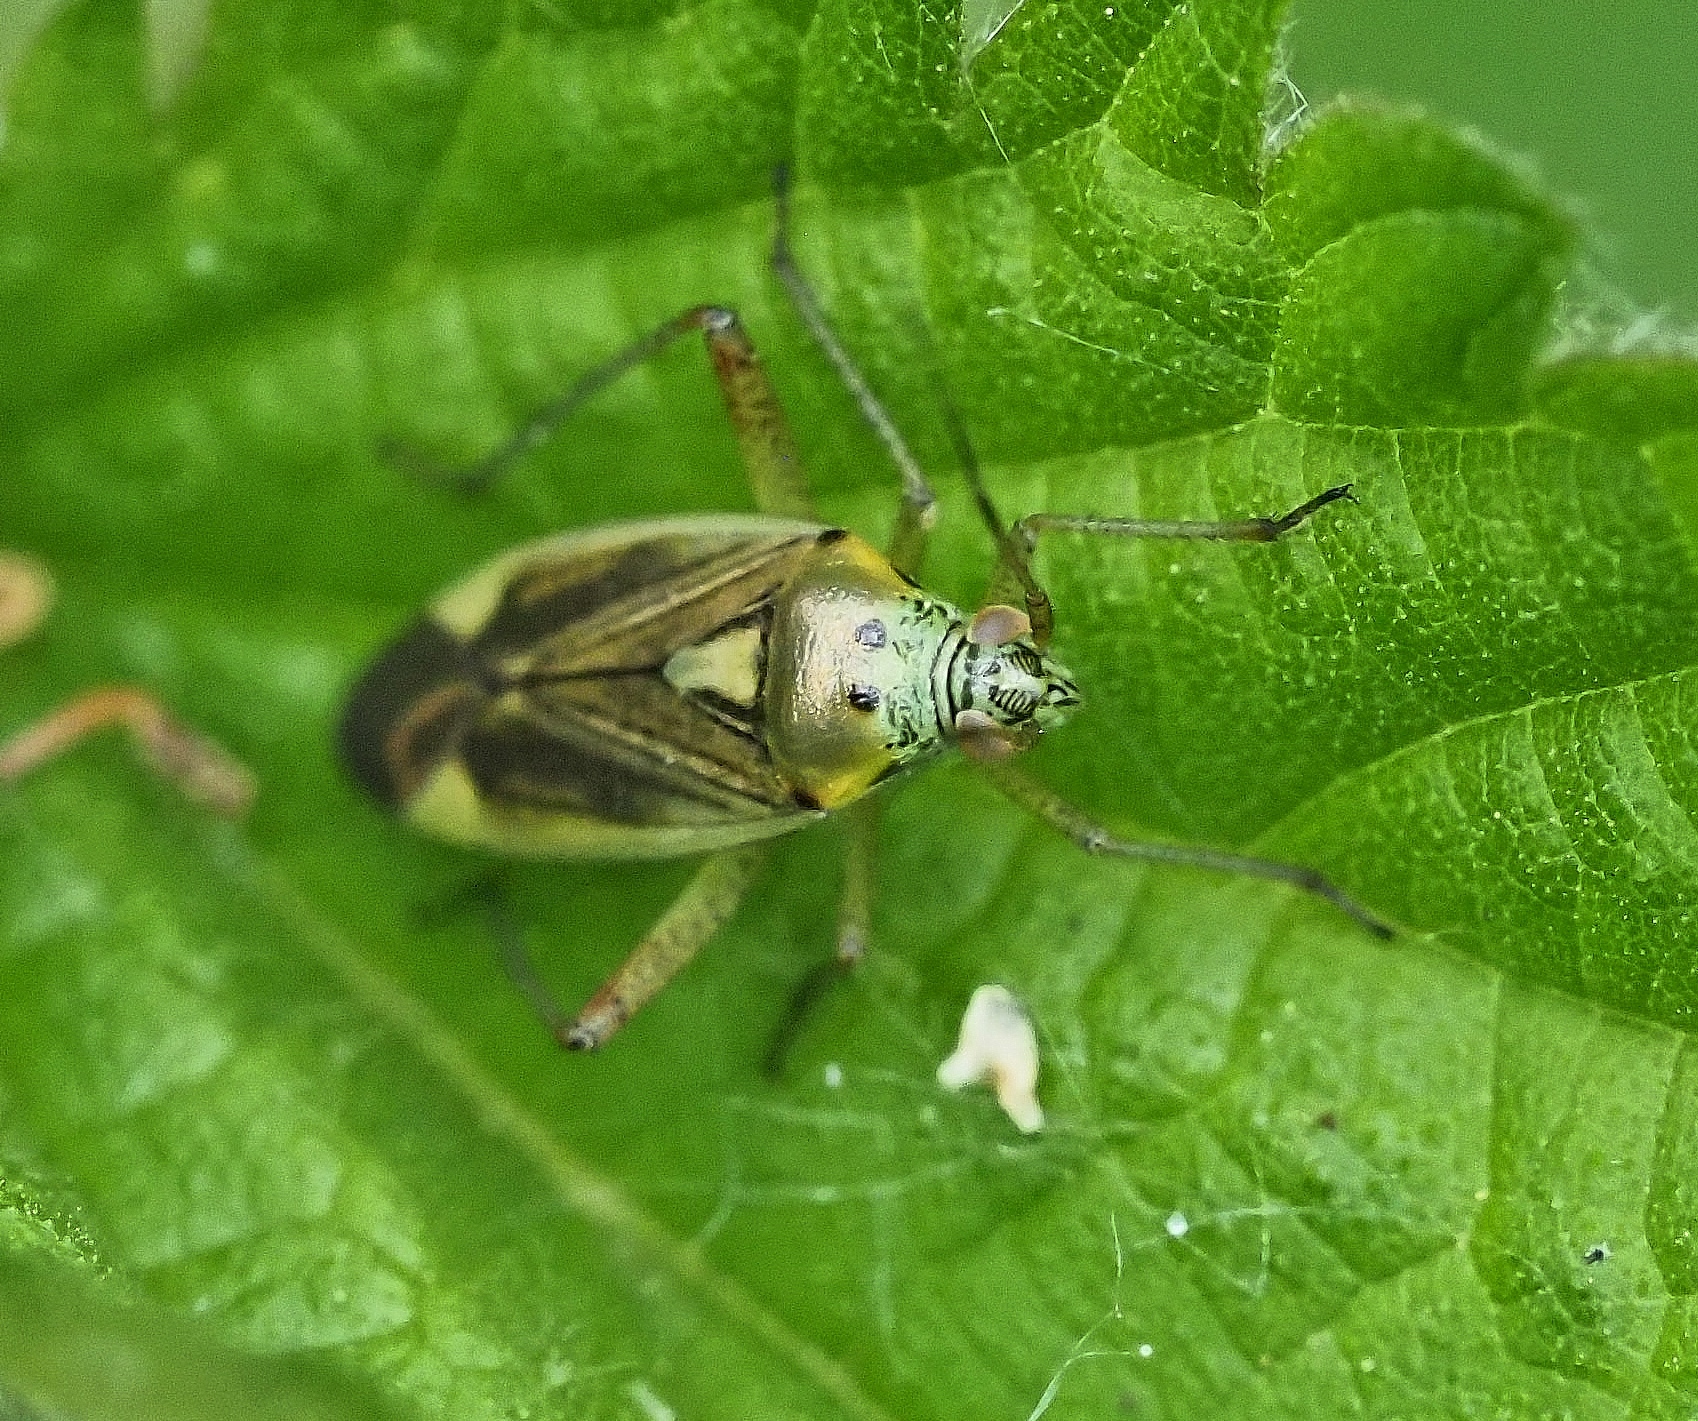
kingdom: Animalia
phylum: Arthropoda
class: Insecta
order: Hemiptera
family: Miridae
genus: Closterotomus
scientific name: Closterotomus trivialis
